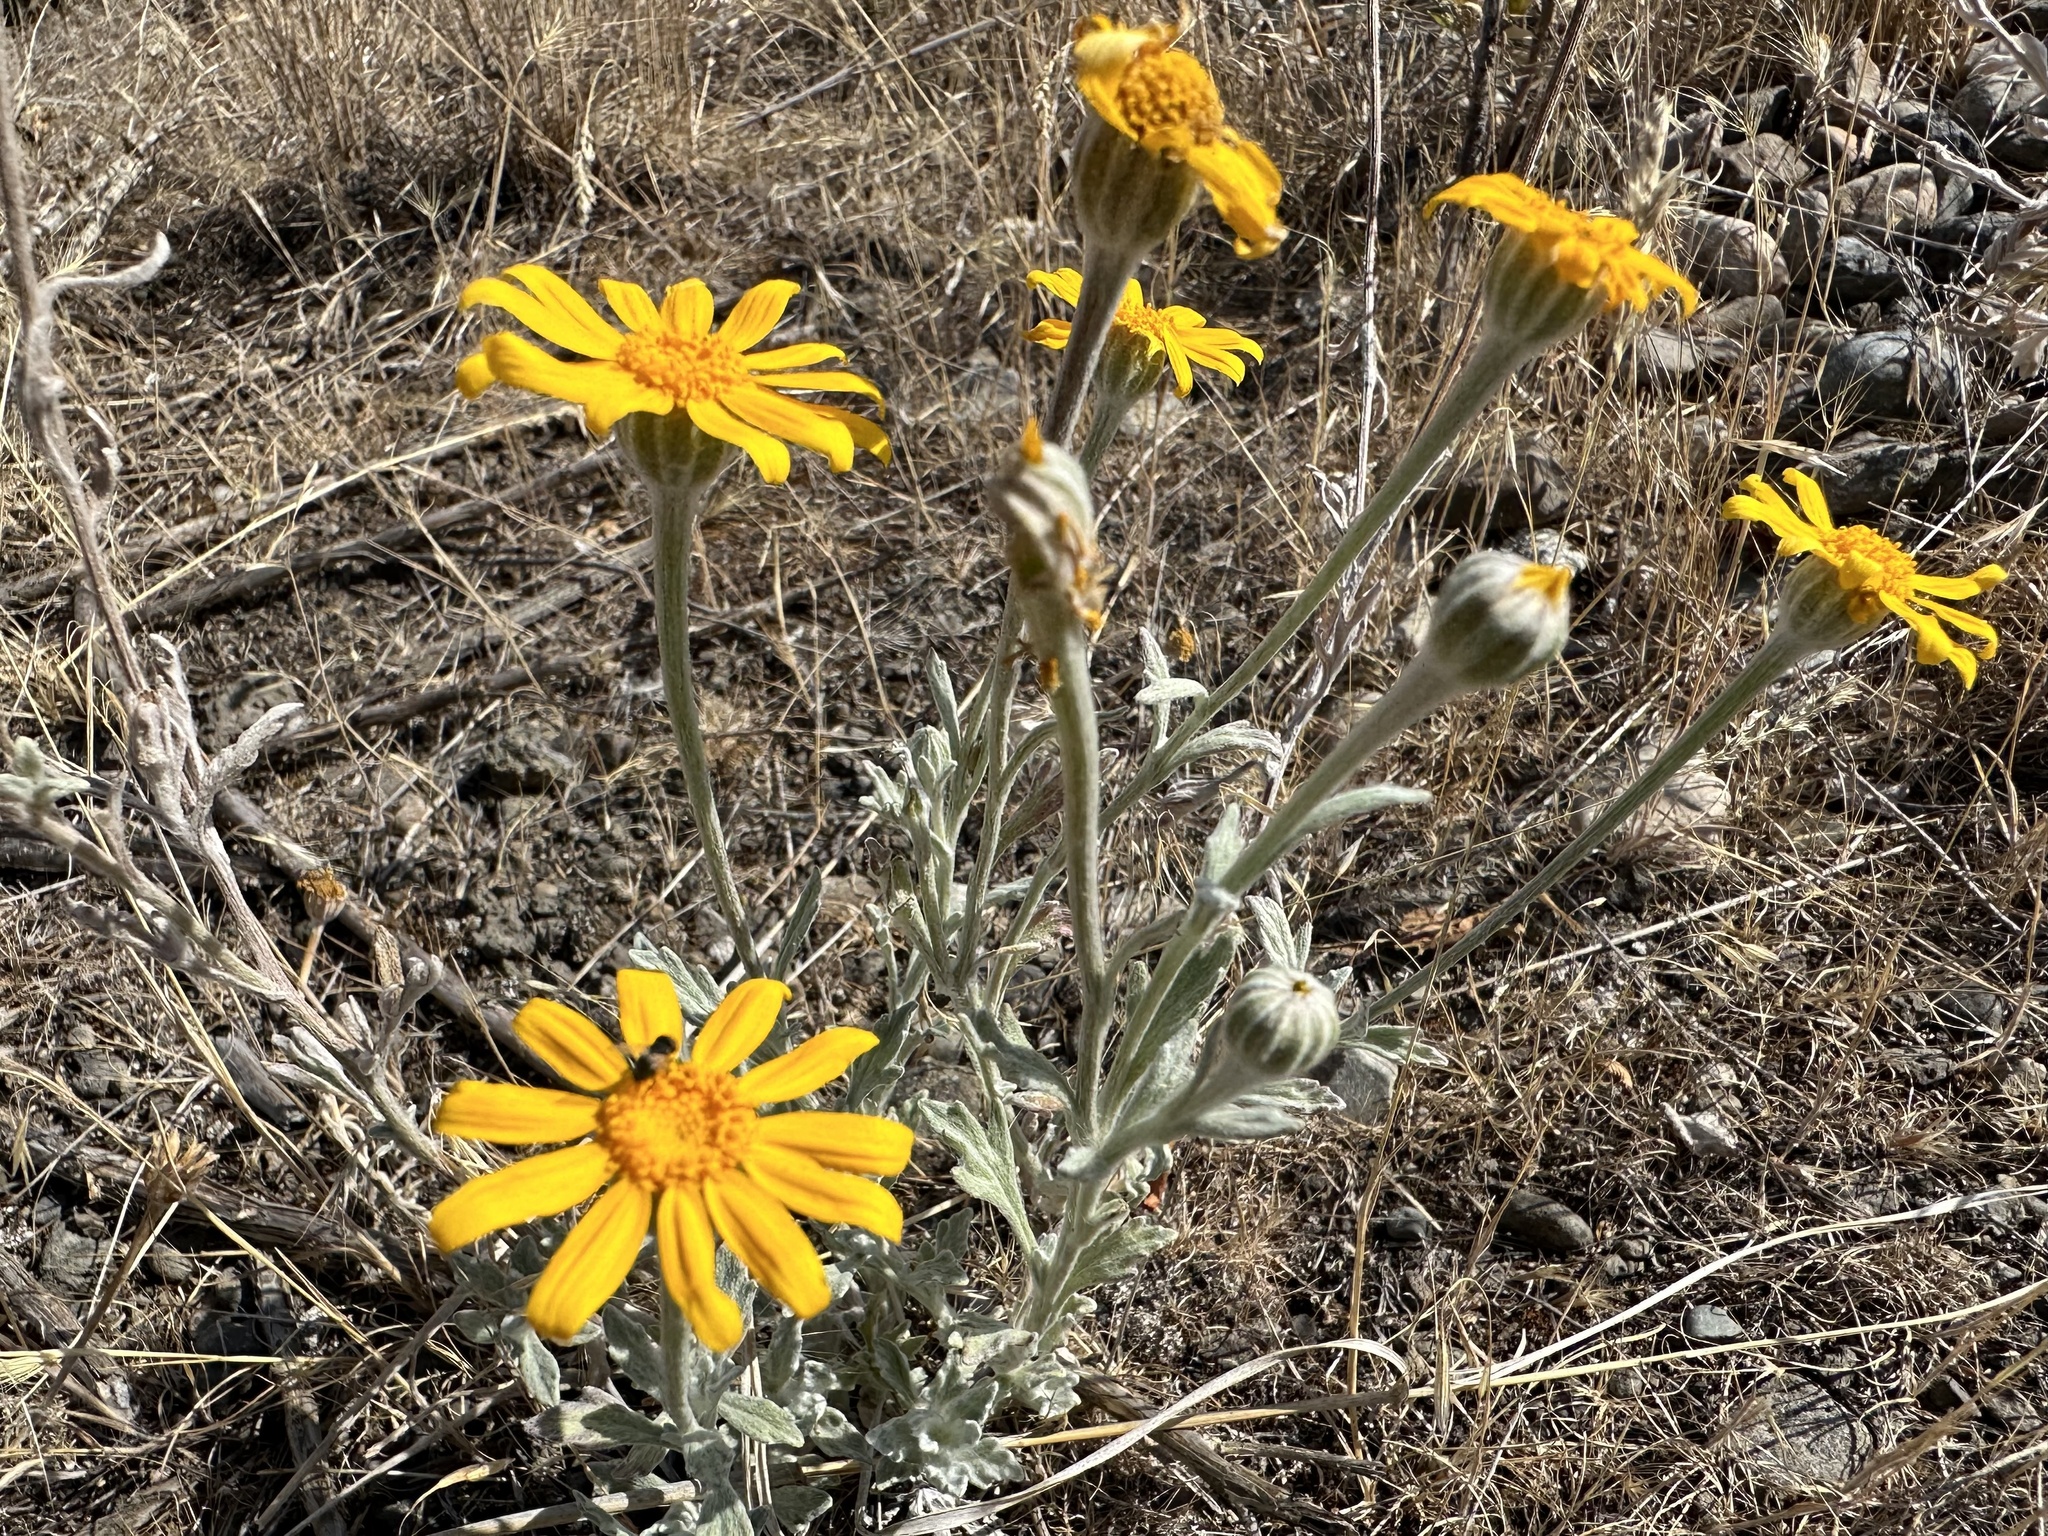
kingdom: Plantae
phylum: Tracheophyta
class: Magnoliopsida
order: Asterales
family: Asteraceae
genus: Eriophyllum
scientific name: Eriophyllum lanatum
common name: Common woolly-sunflower
